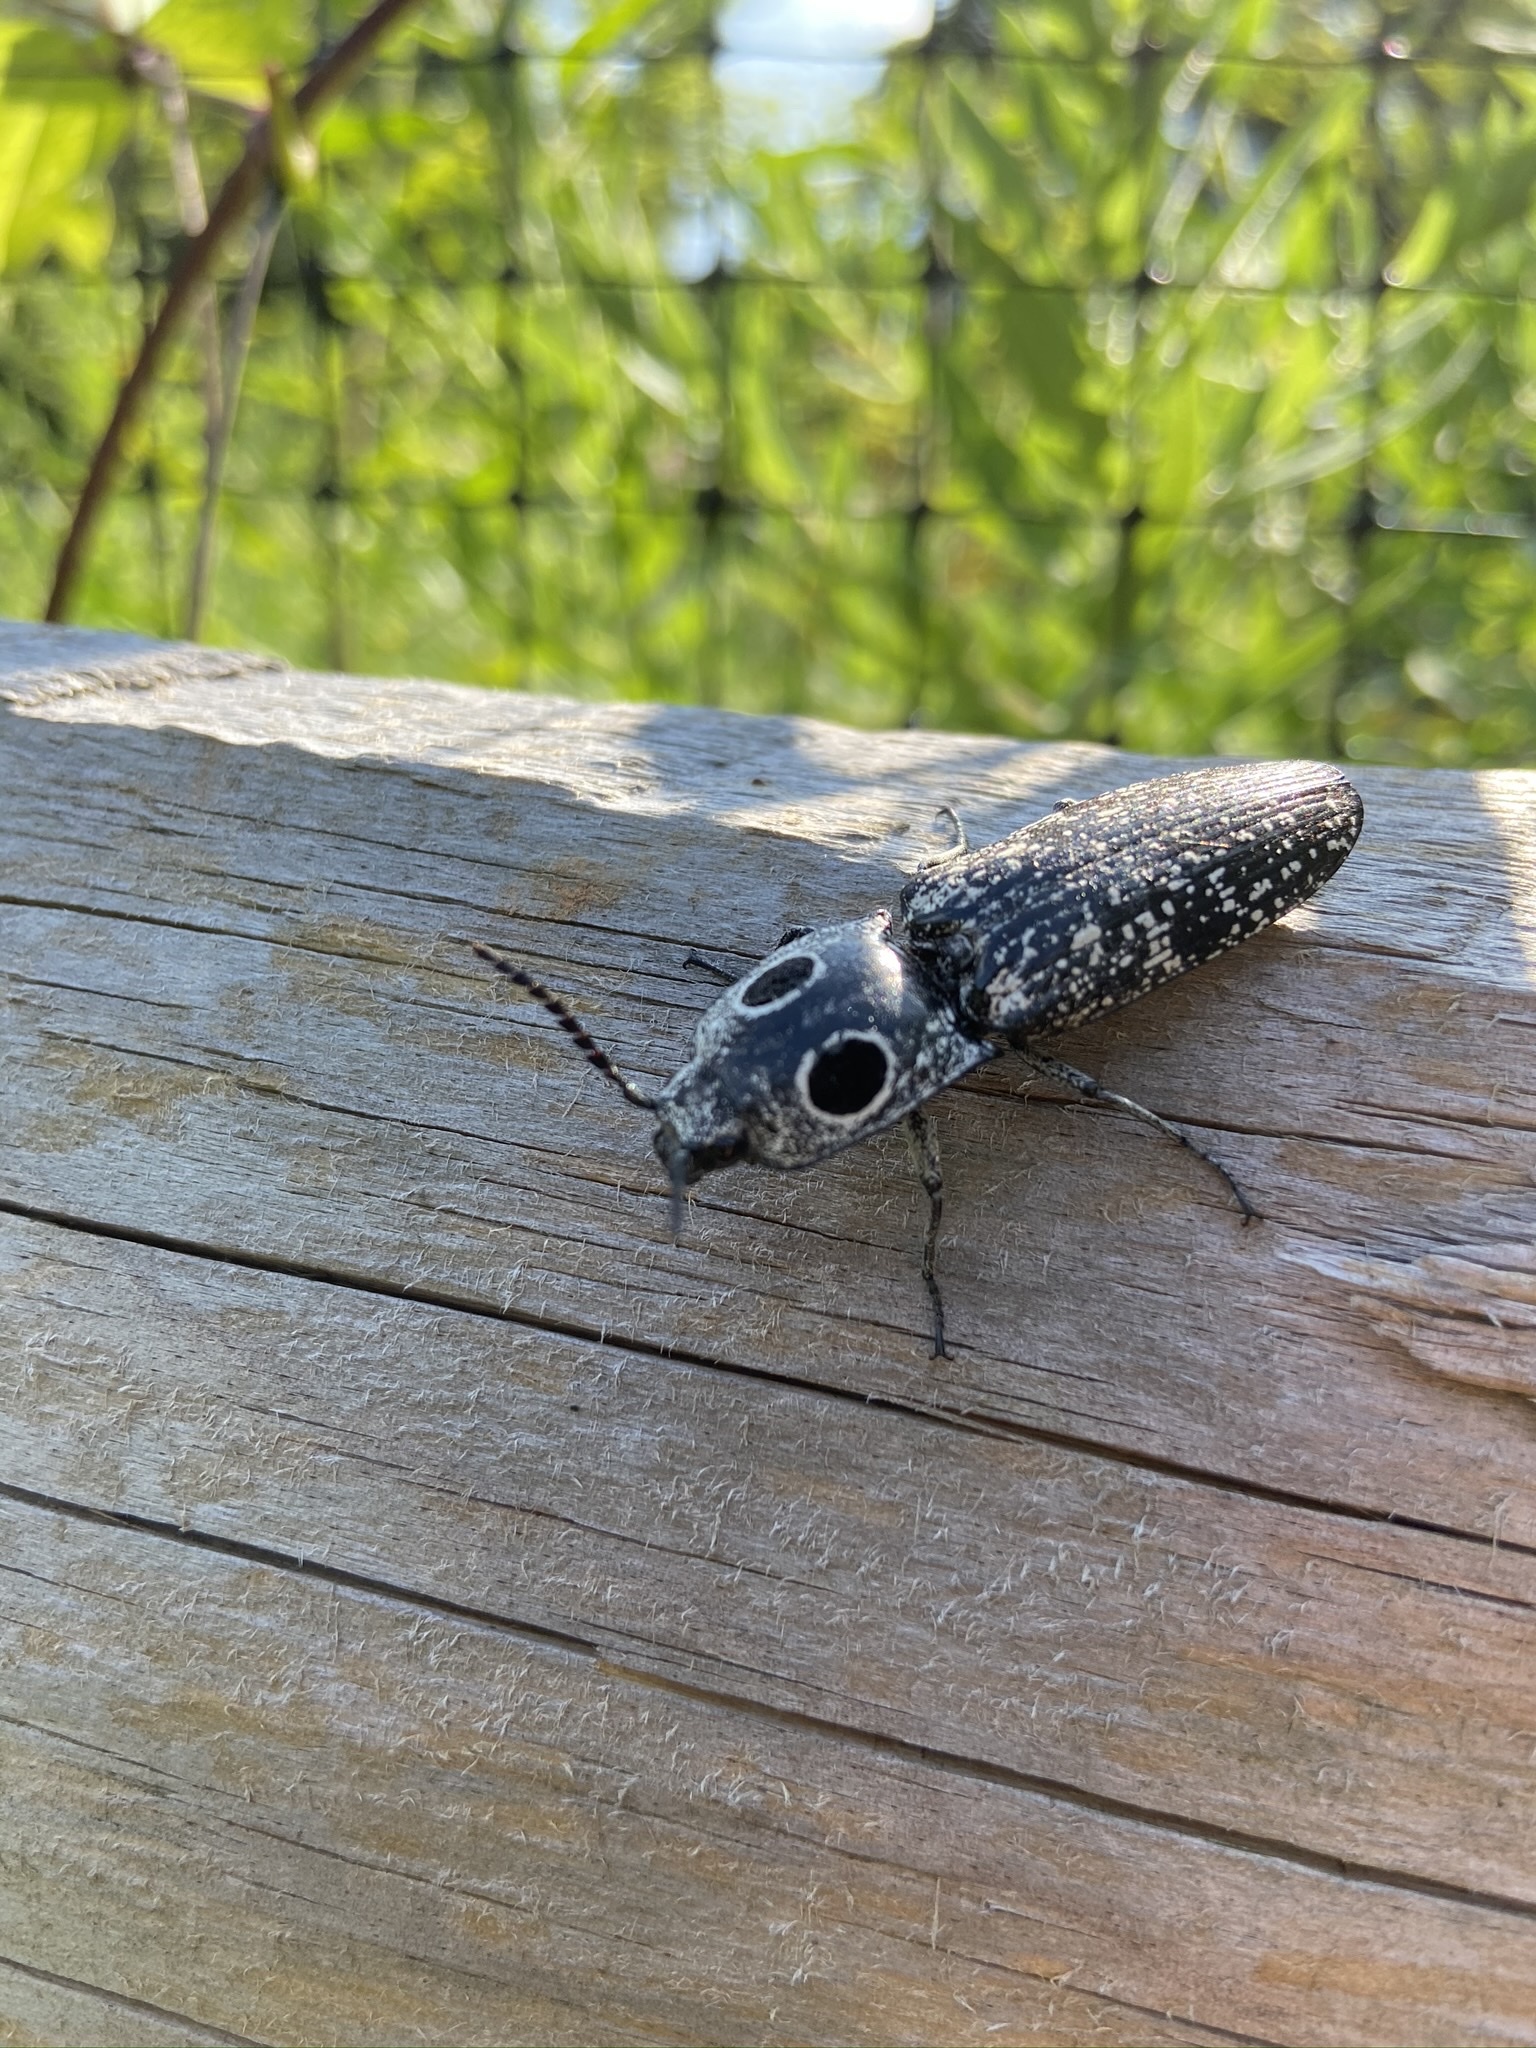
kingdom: Animalia
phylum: Arthropoda
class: Insecta
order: Coleoptera
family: Elateridae
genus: Alaus
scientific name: Alaus oculatus
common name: Eastern eyed click beetle
